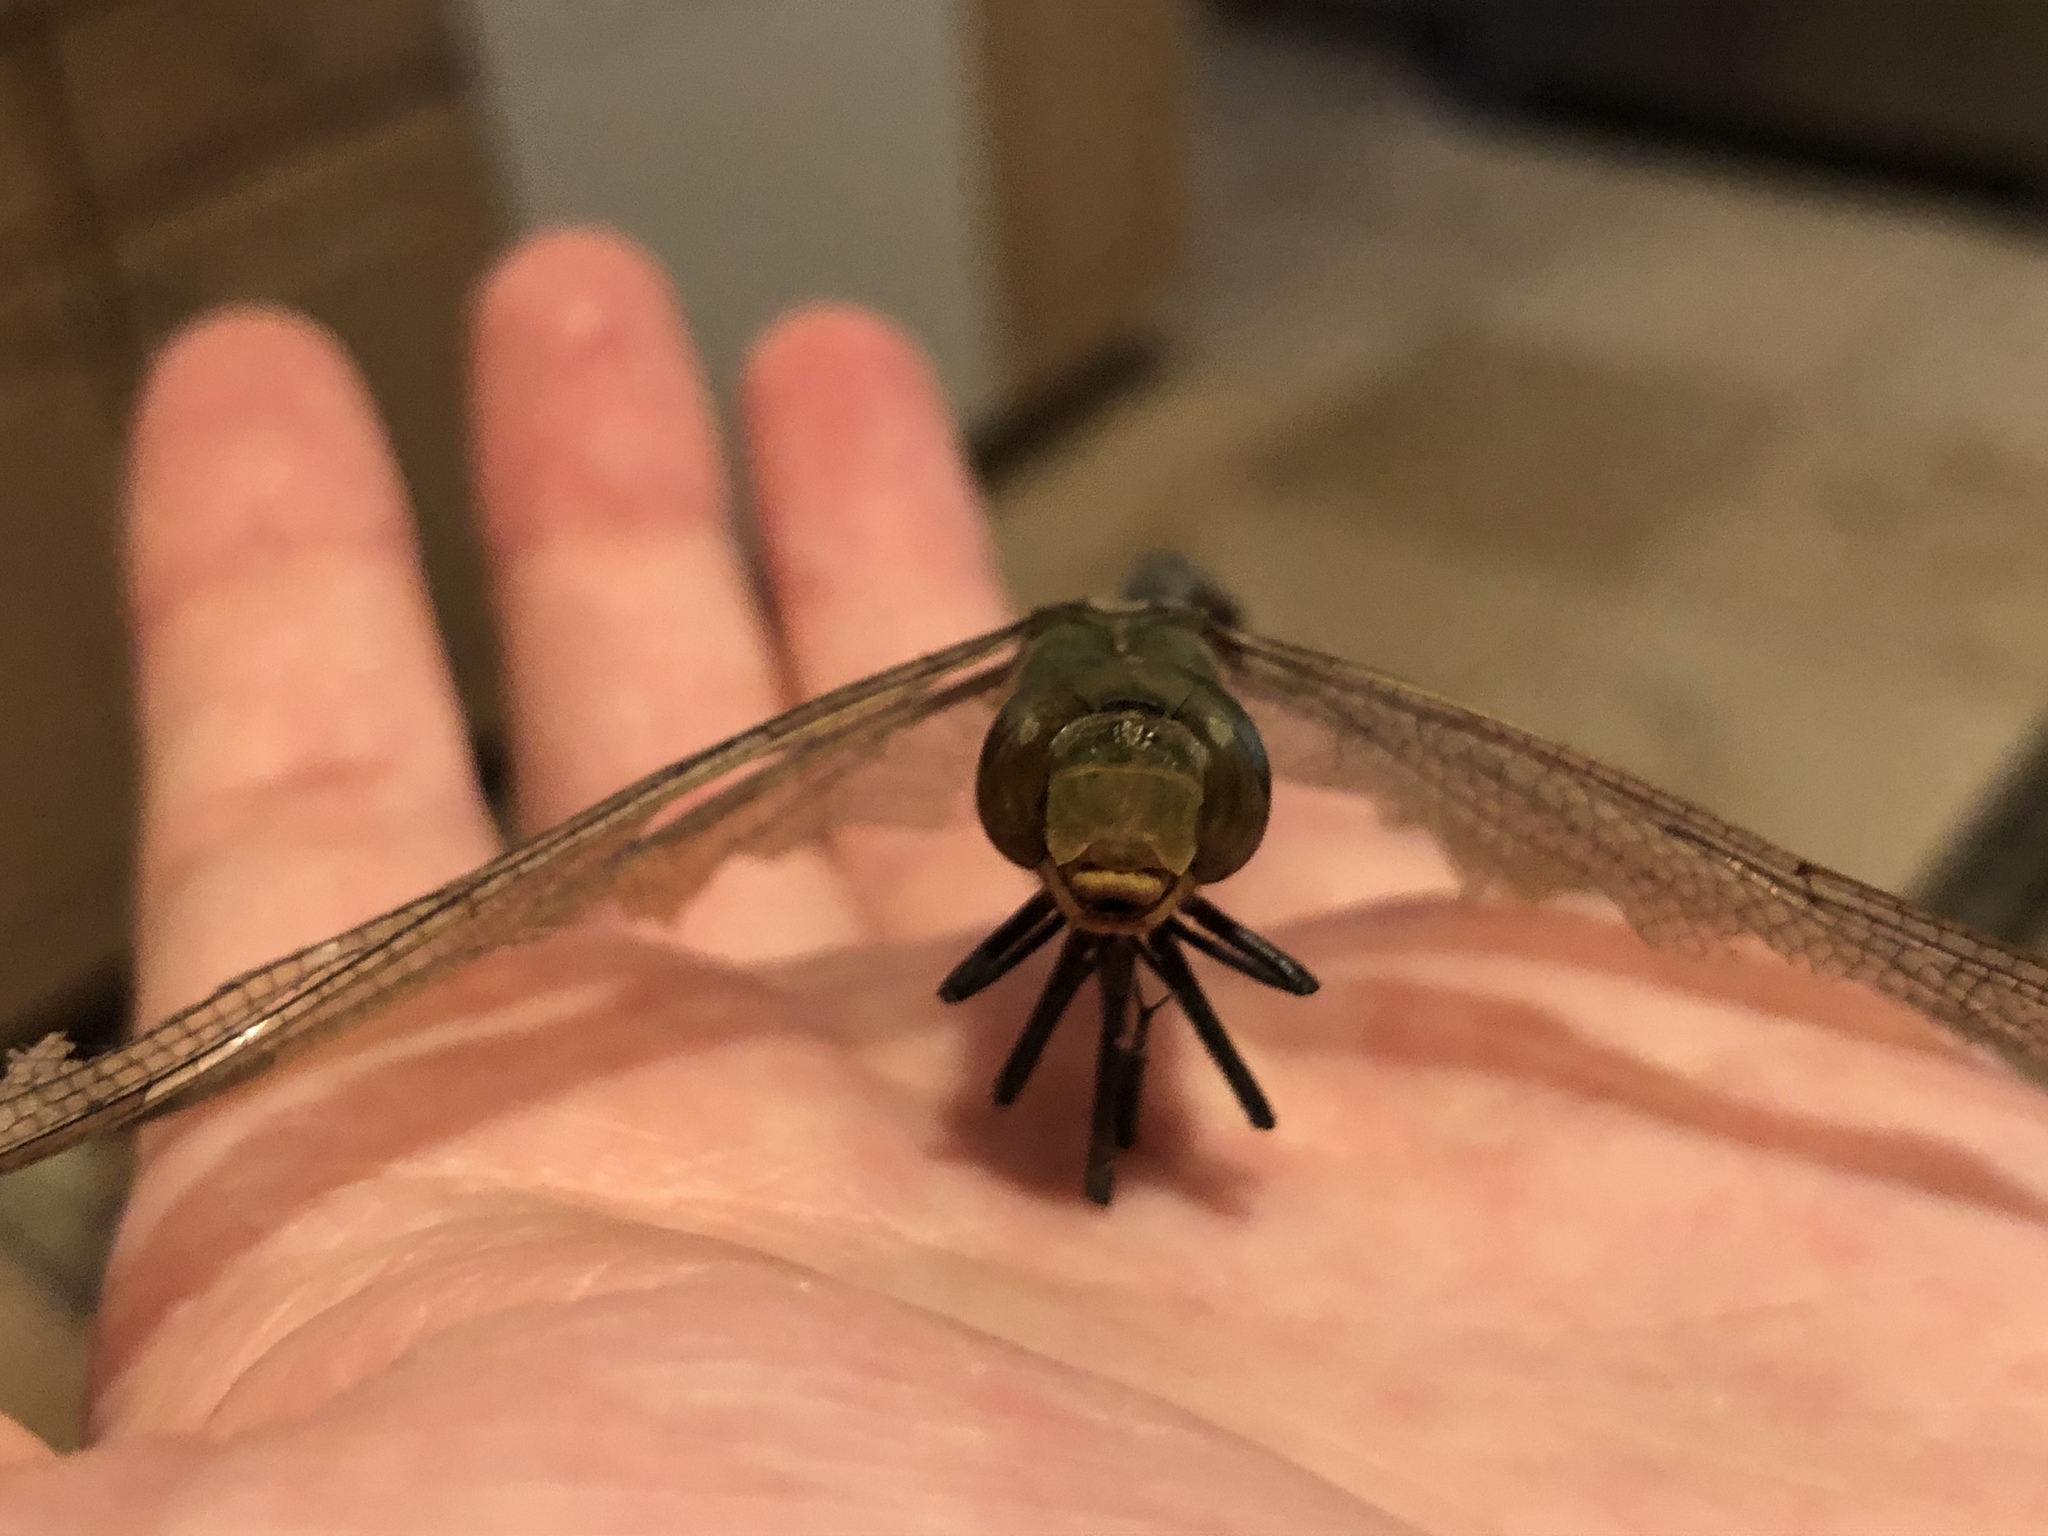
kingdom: Animalia
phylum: Arthropoda
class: Insecta
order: Odonata
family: Aeshnidae
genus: Anax
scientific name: Anax junius
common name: Common green darner
